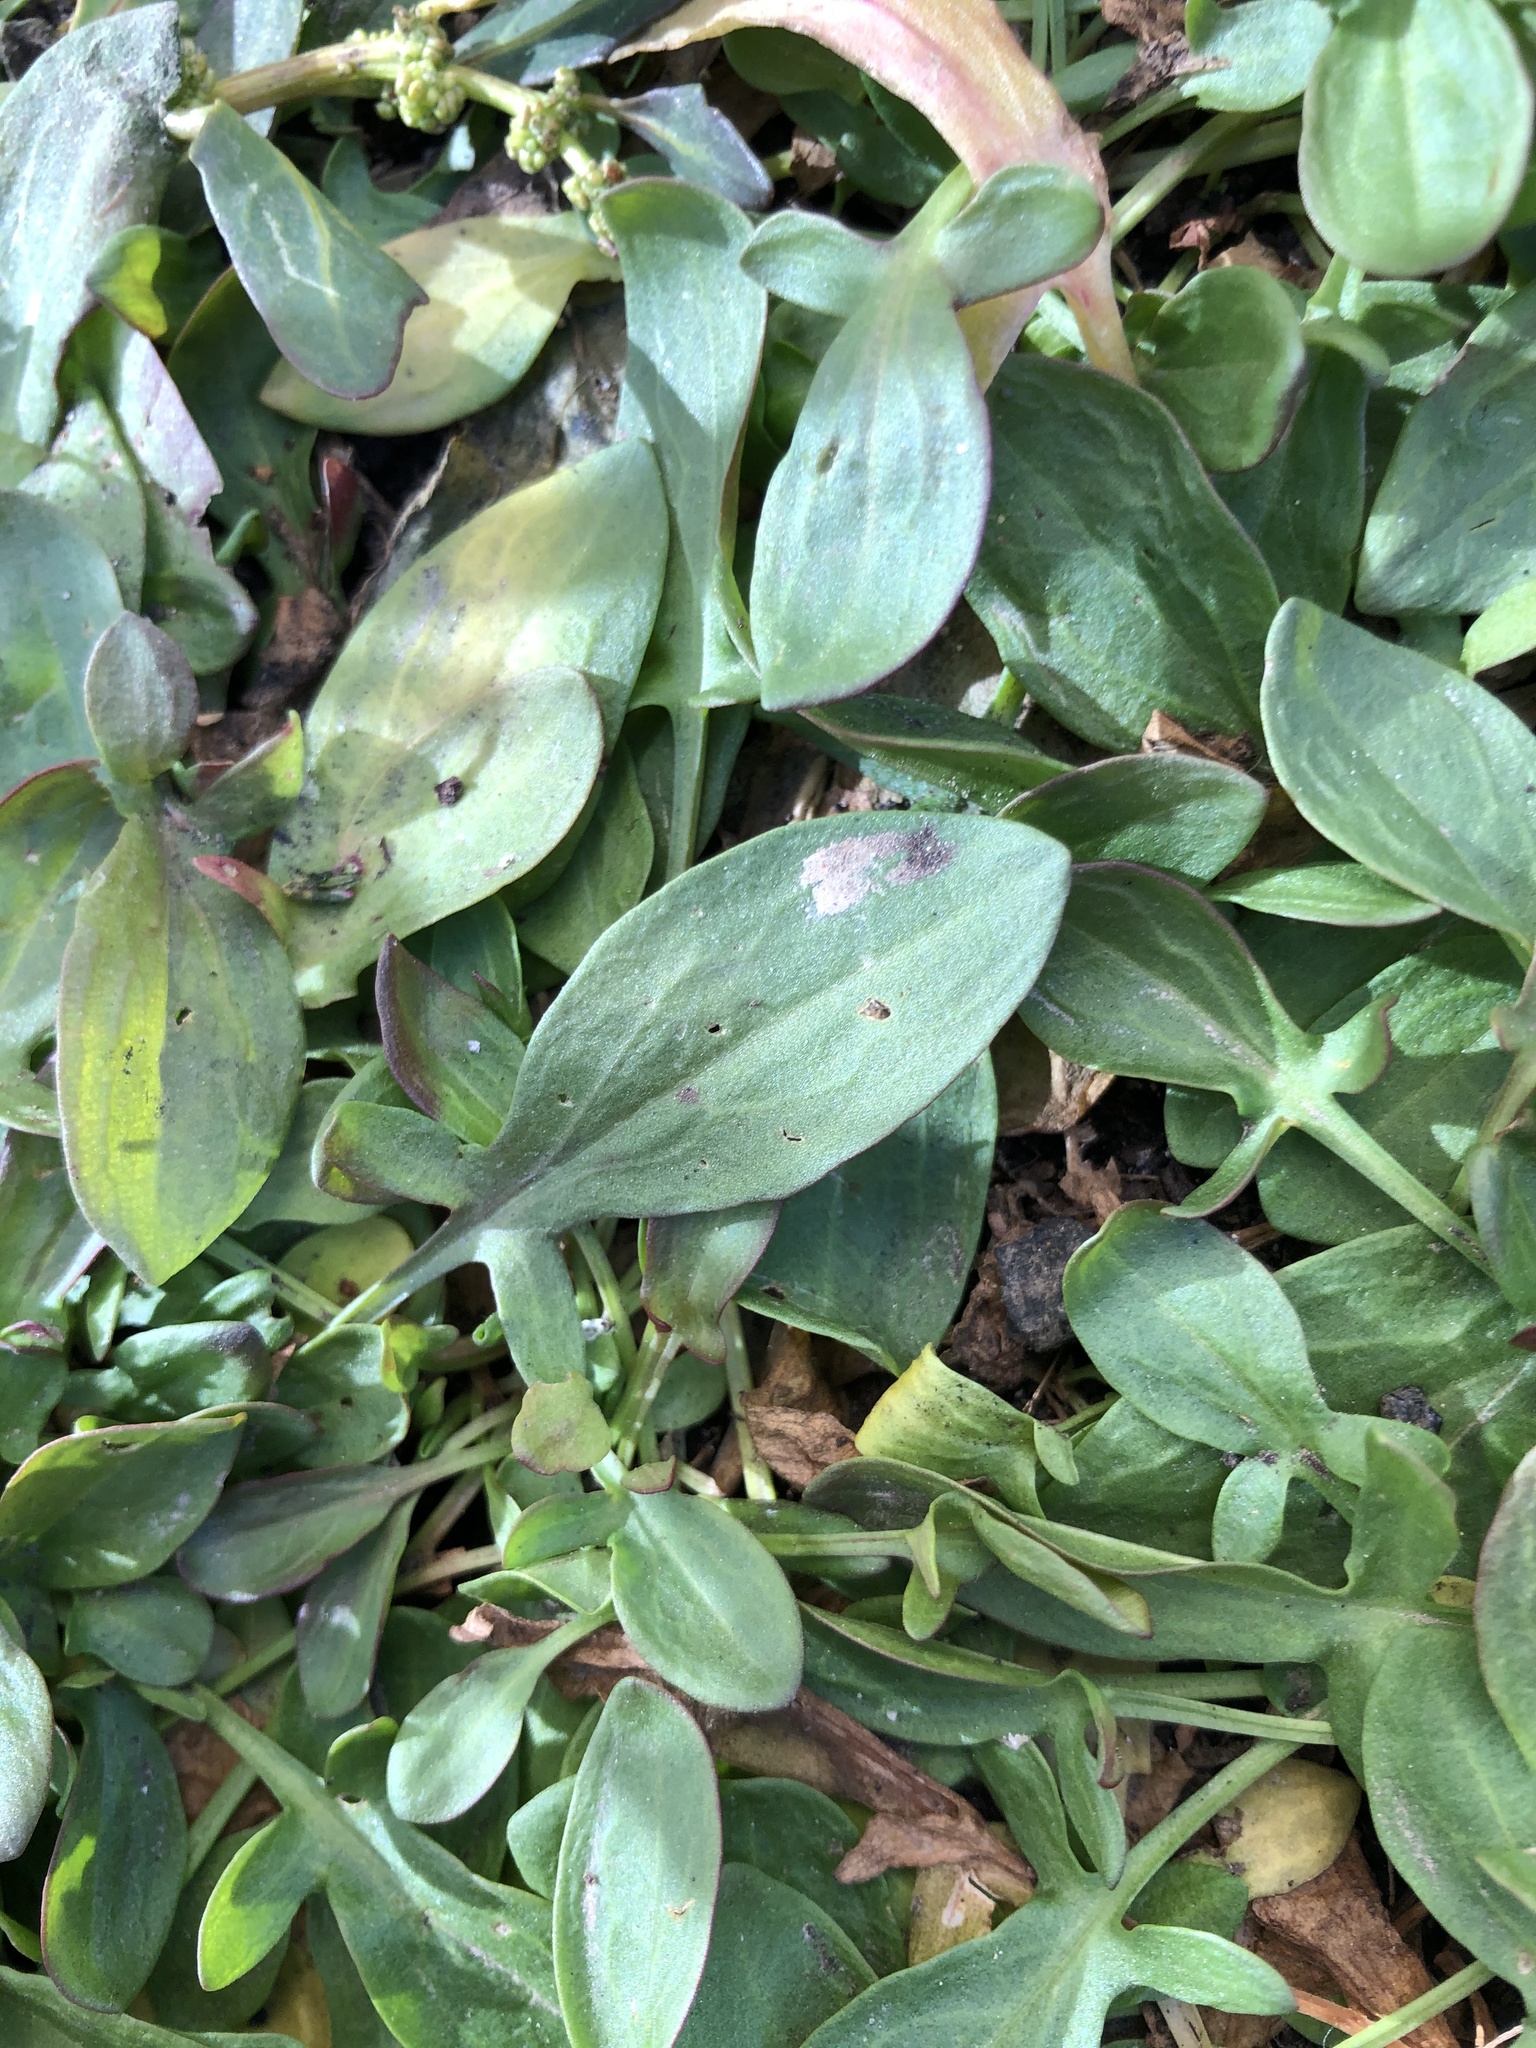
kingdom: Plantae
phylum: Tracheophyta
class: Magnoliopsida
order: Caryophyllales
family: Polygonaceae
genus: Rumex
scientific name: Rumex acetosella
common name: Common sheep sorrel
